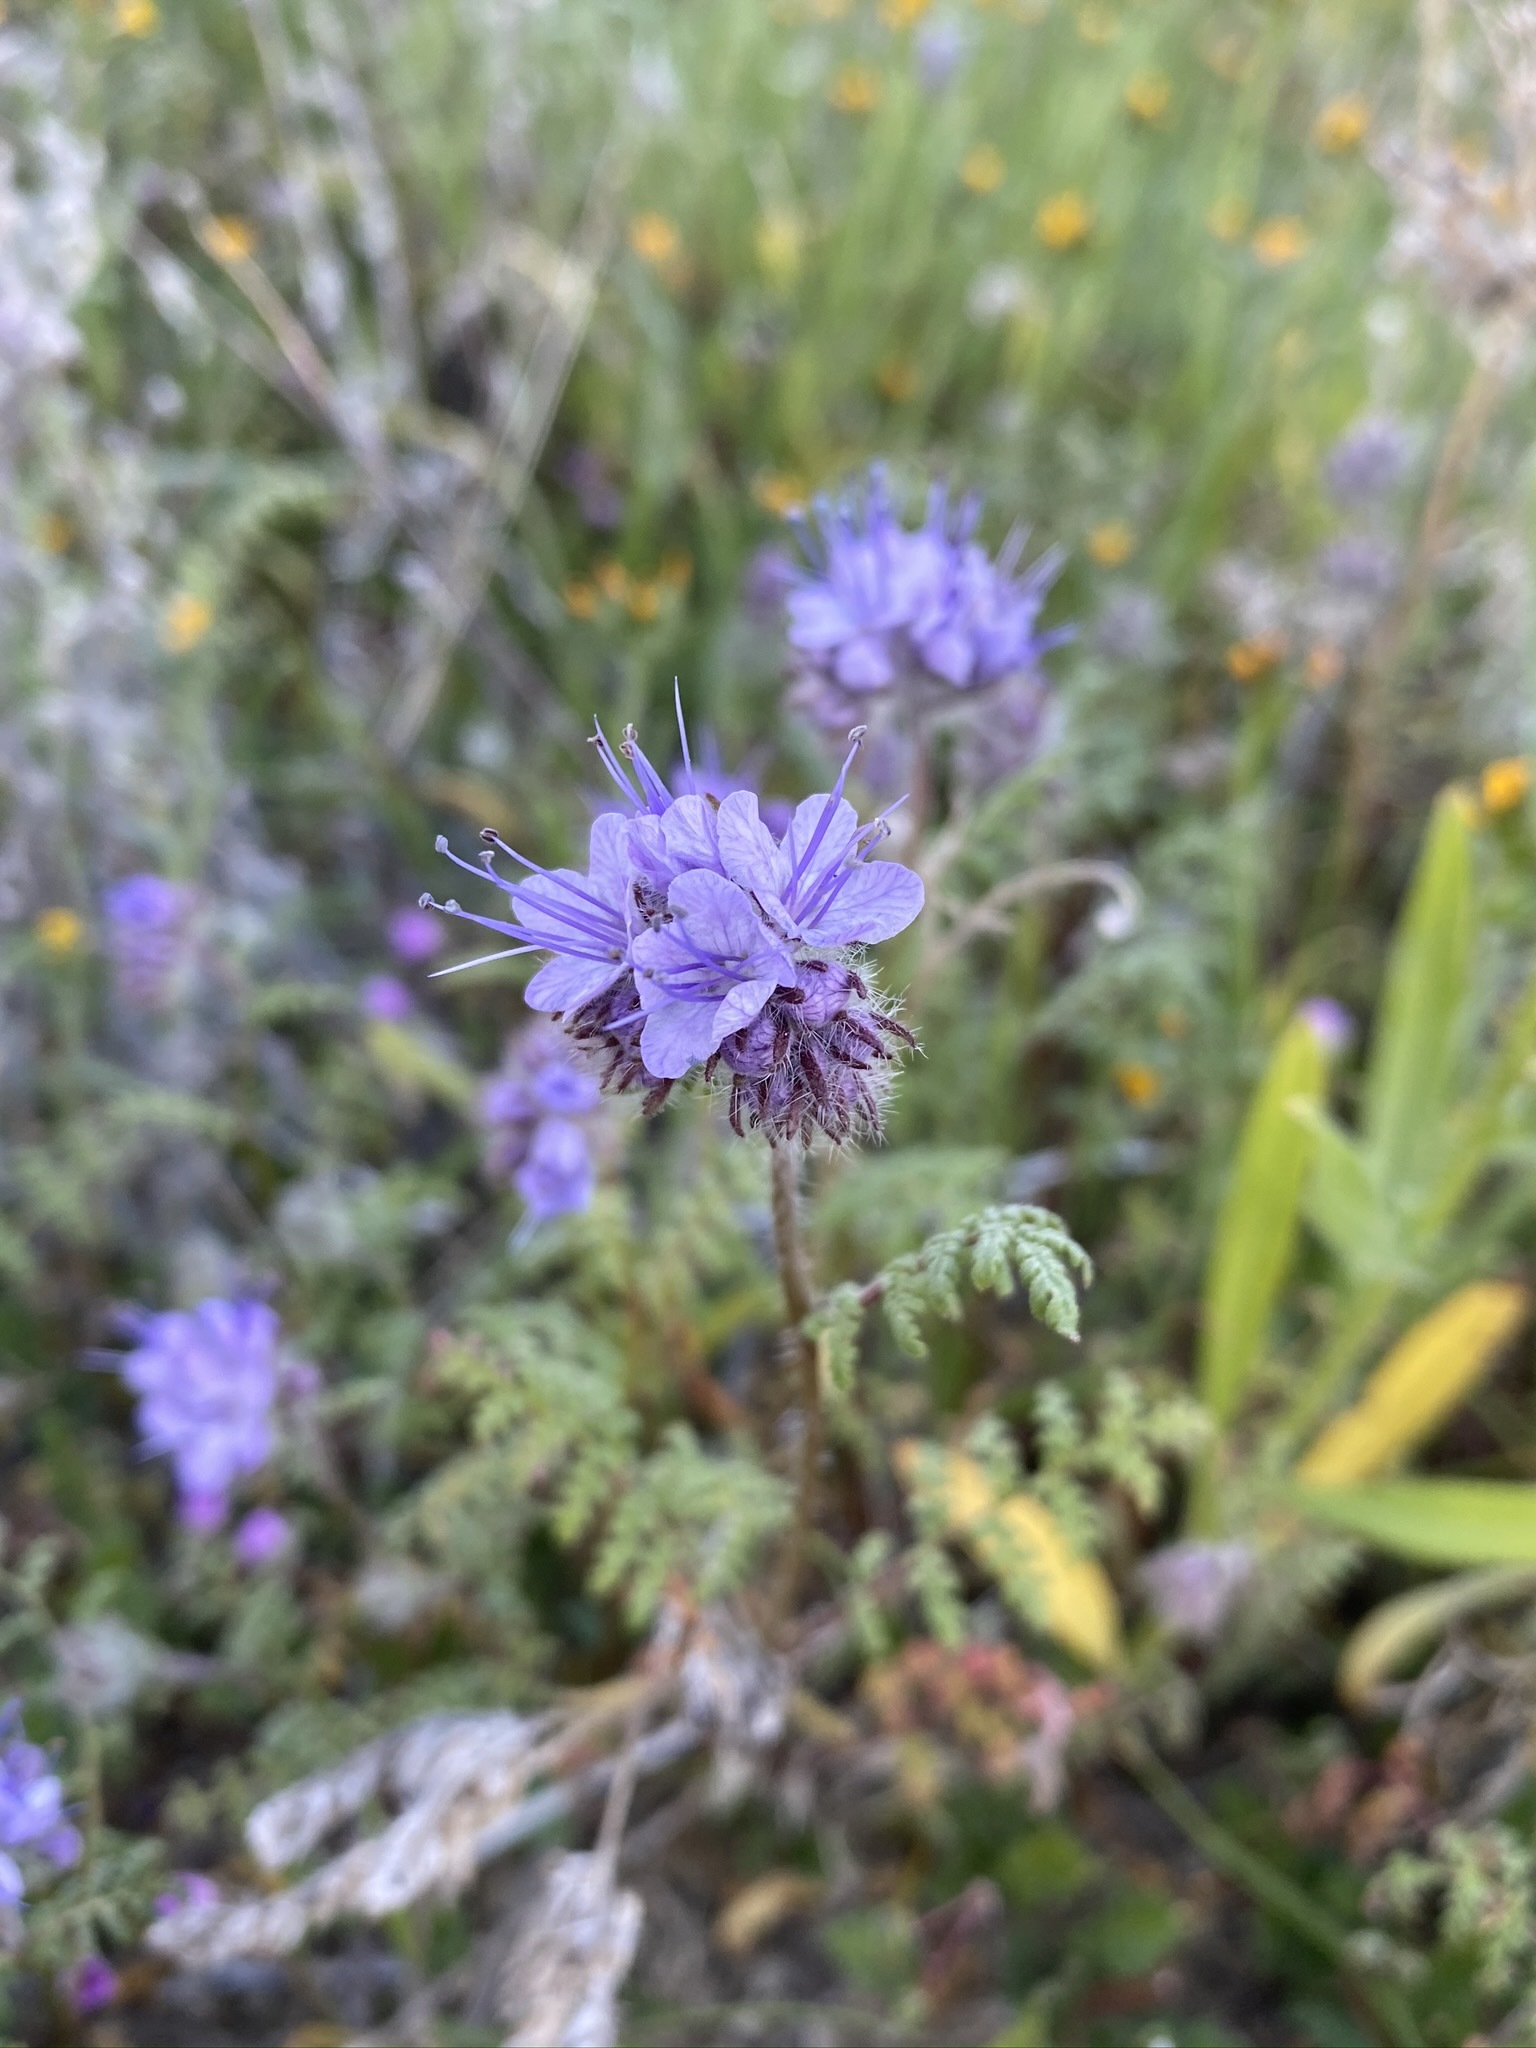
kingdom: Plantae
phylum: Tracheophyta
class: Magnoliopsida
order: Boraginales
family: Hydrophyllaceae
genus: Phacelia
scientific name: Phacelia tanacetifolia
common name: Phacelia
